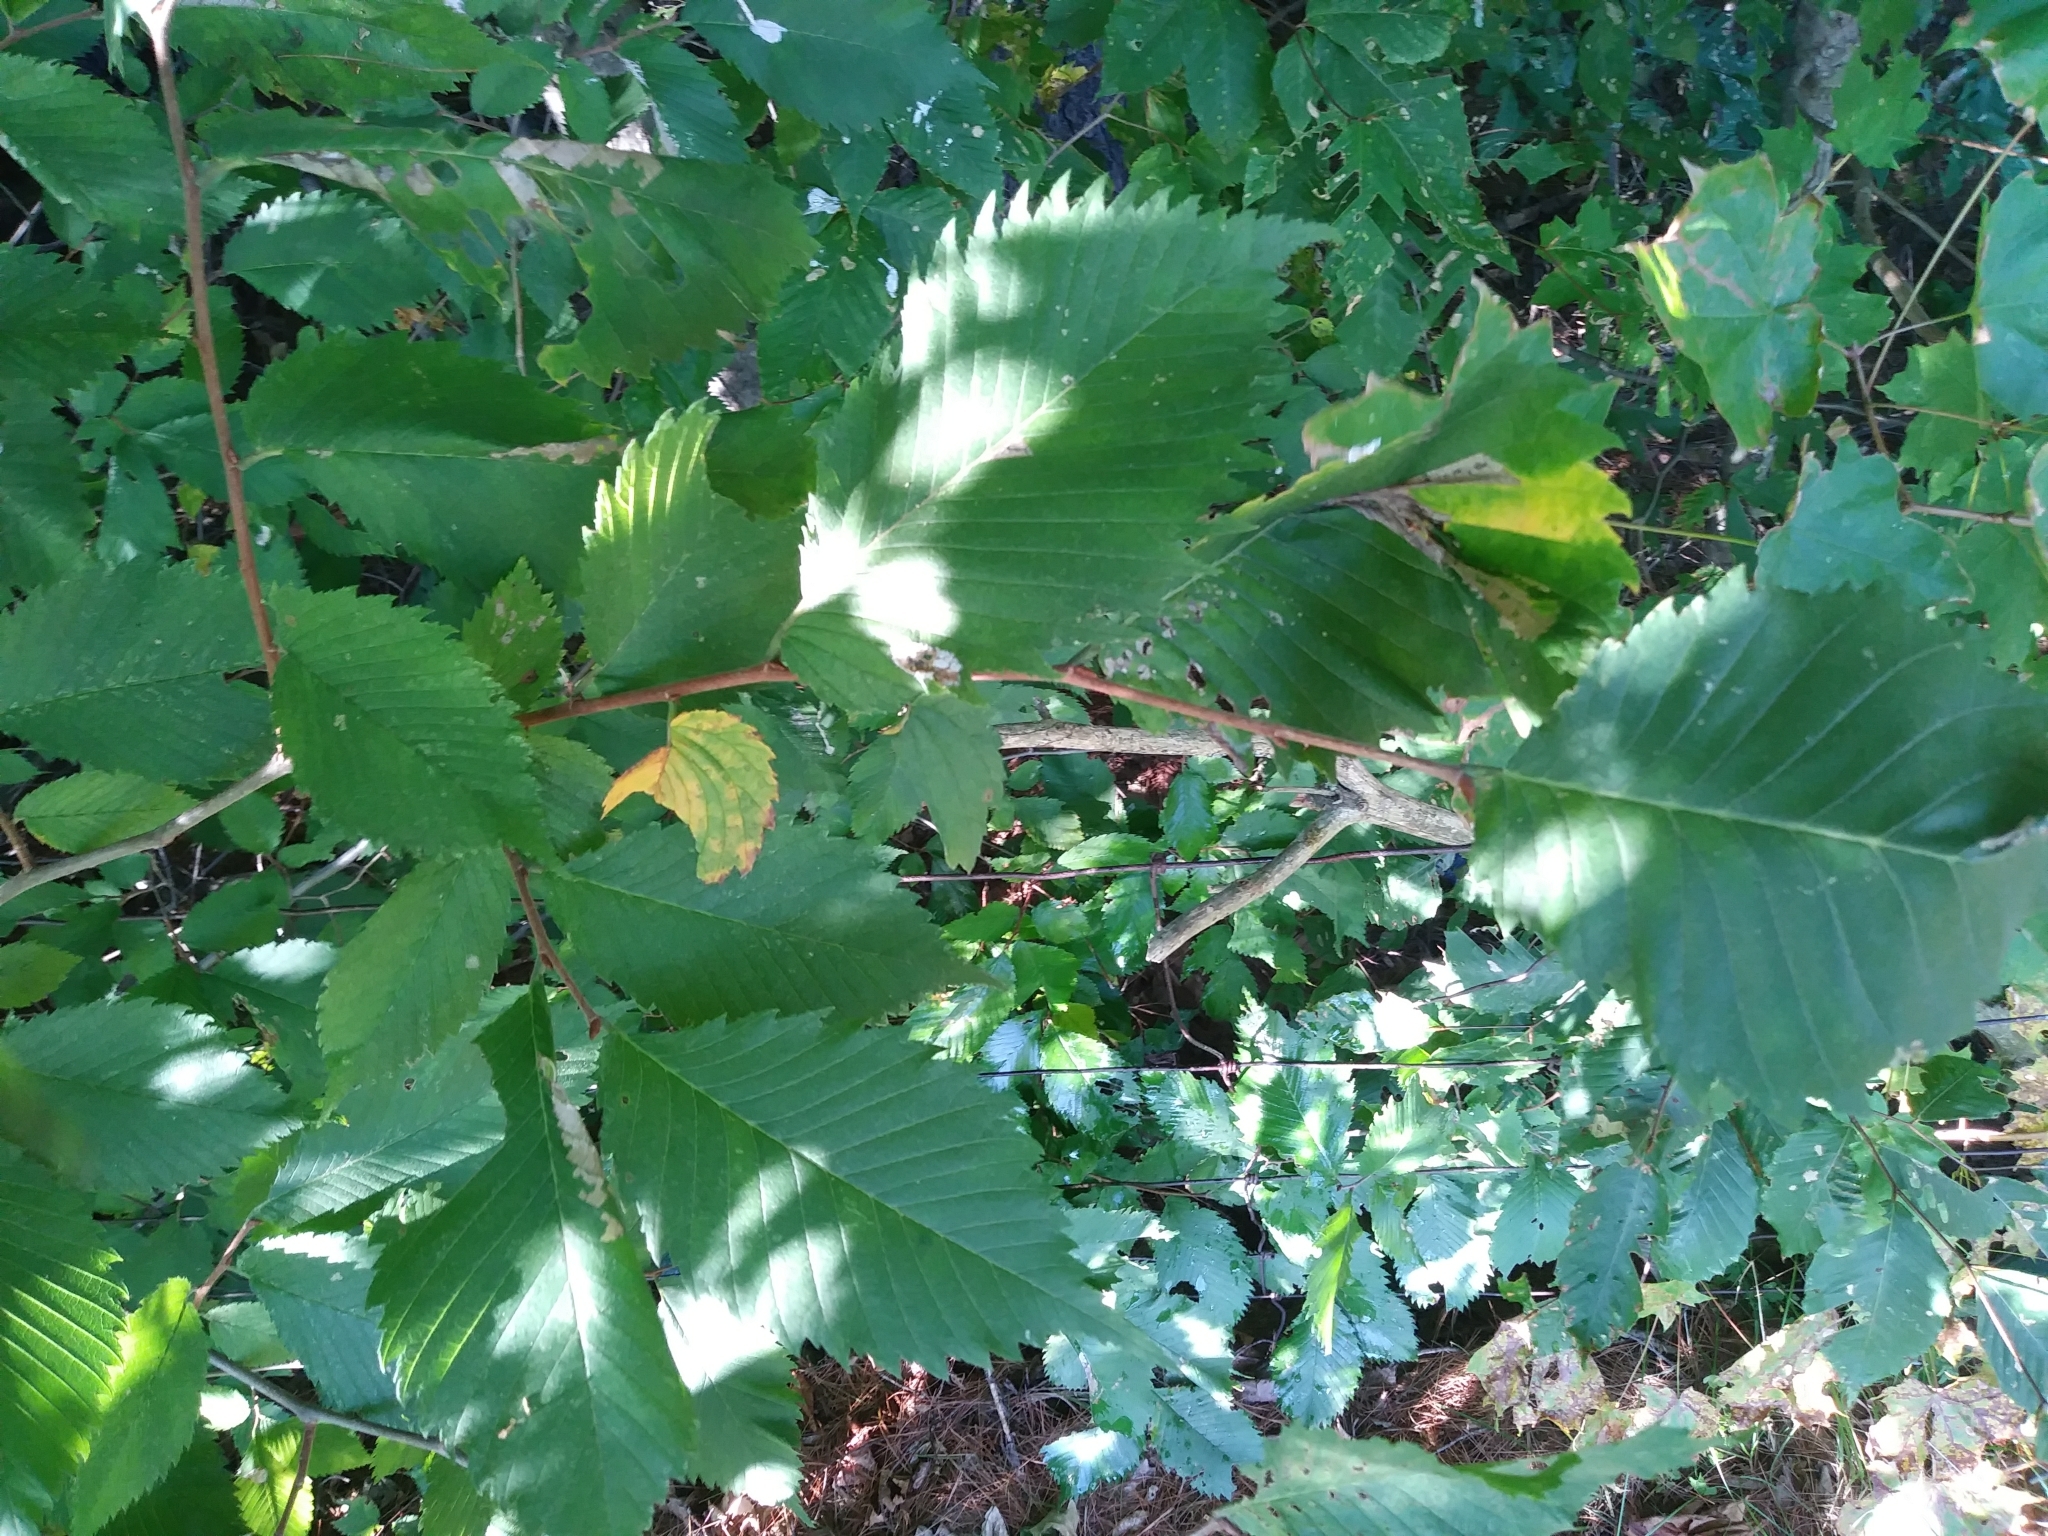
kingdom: Plantae
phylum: Tracheophyta
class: Magnoliopsida
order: Rosales
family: Ulmaceae
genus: Ulmus
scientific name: Ulmus americana
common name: American elm
